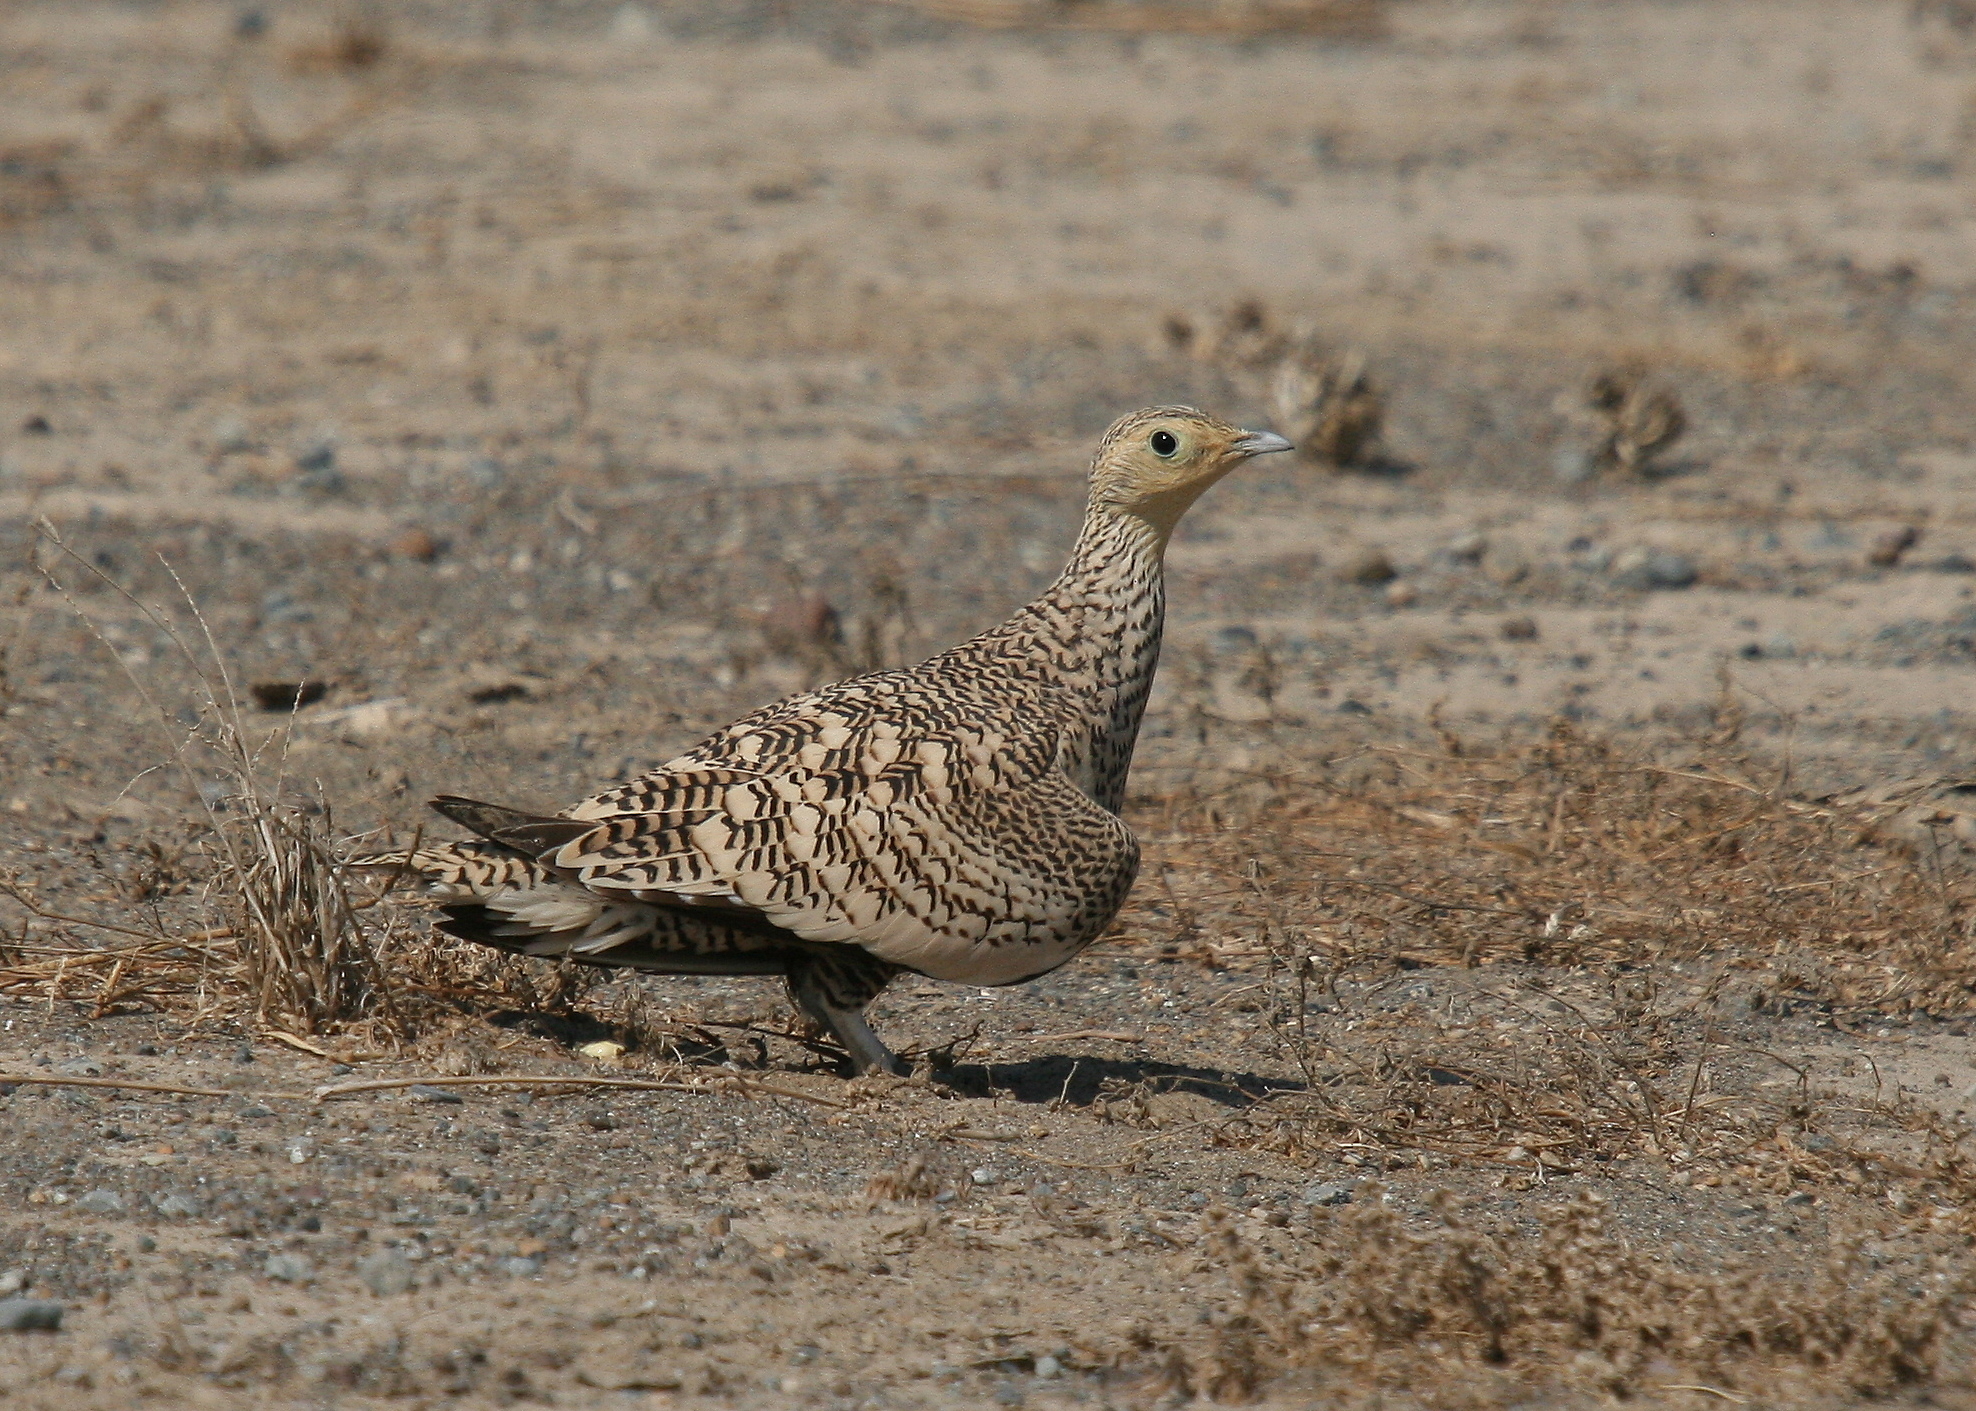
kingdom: Animalia
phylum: Chordata
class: Aves
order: Pteroclidiformes
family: Pteroclididae
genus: Pterocles
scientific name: Pterocles exustus
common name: Chestnut-bellied sandgrouse
